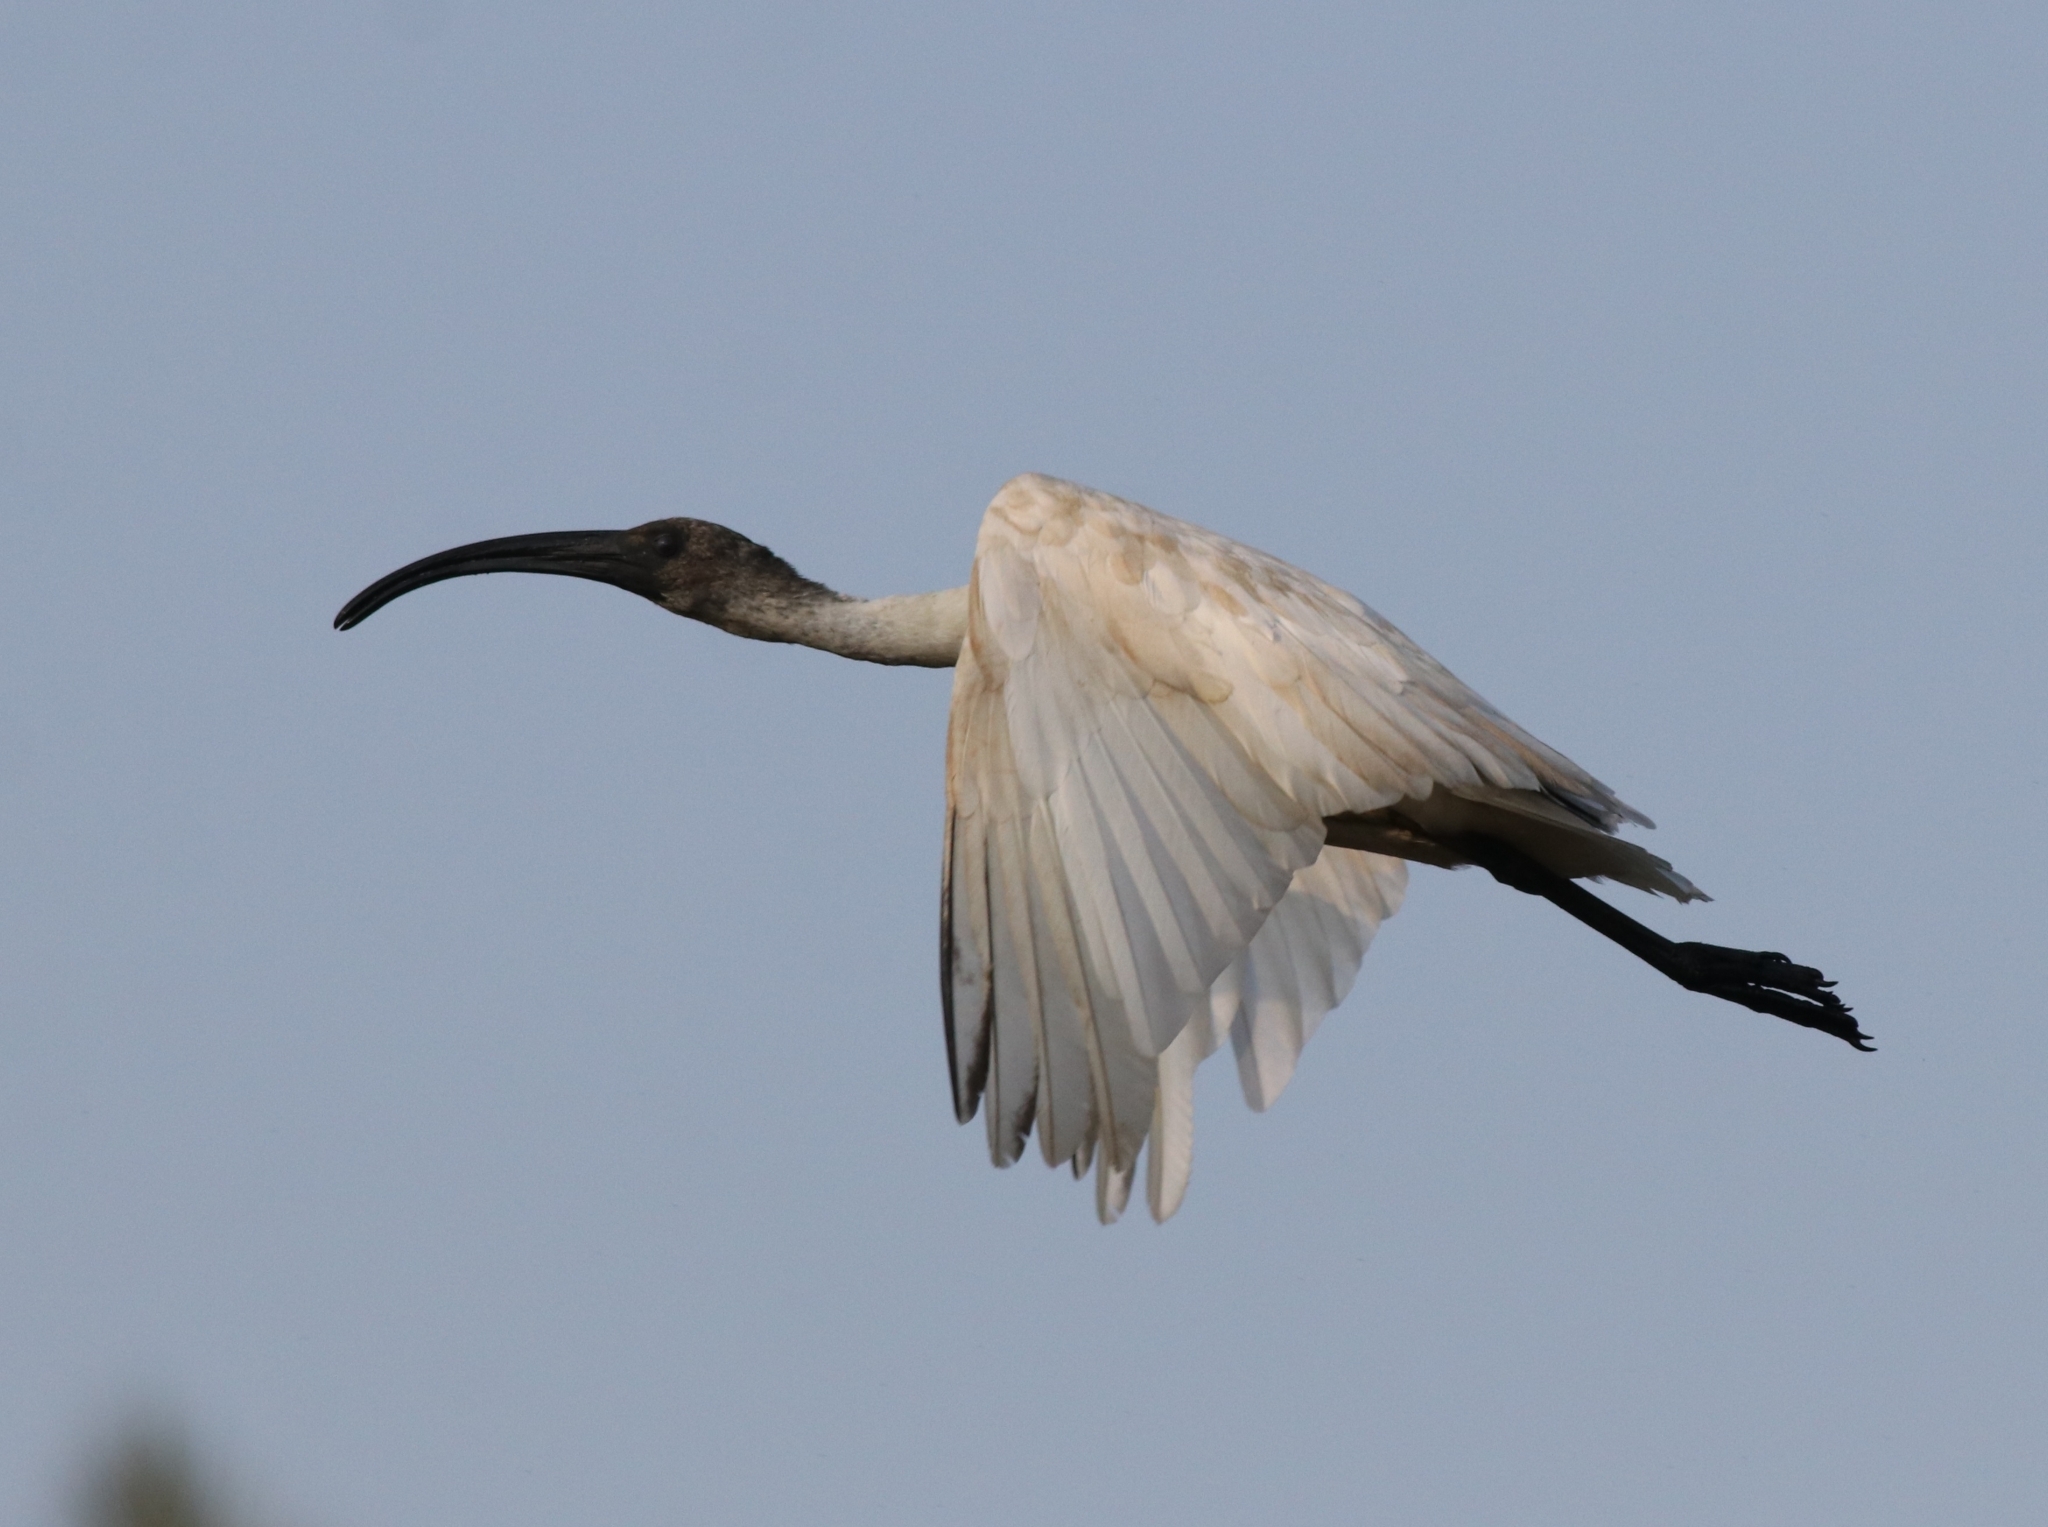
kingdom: Animalia
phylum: Chordata
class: Aves
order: Pelecaniformes
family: Threskiornithidae
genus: Threskiornis
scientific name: Threskiornis melanocephalus
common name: Black-headed ibis
